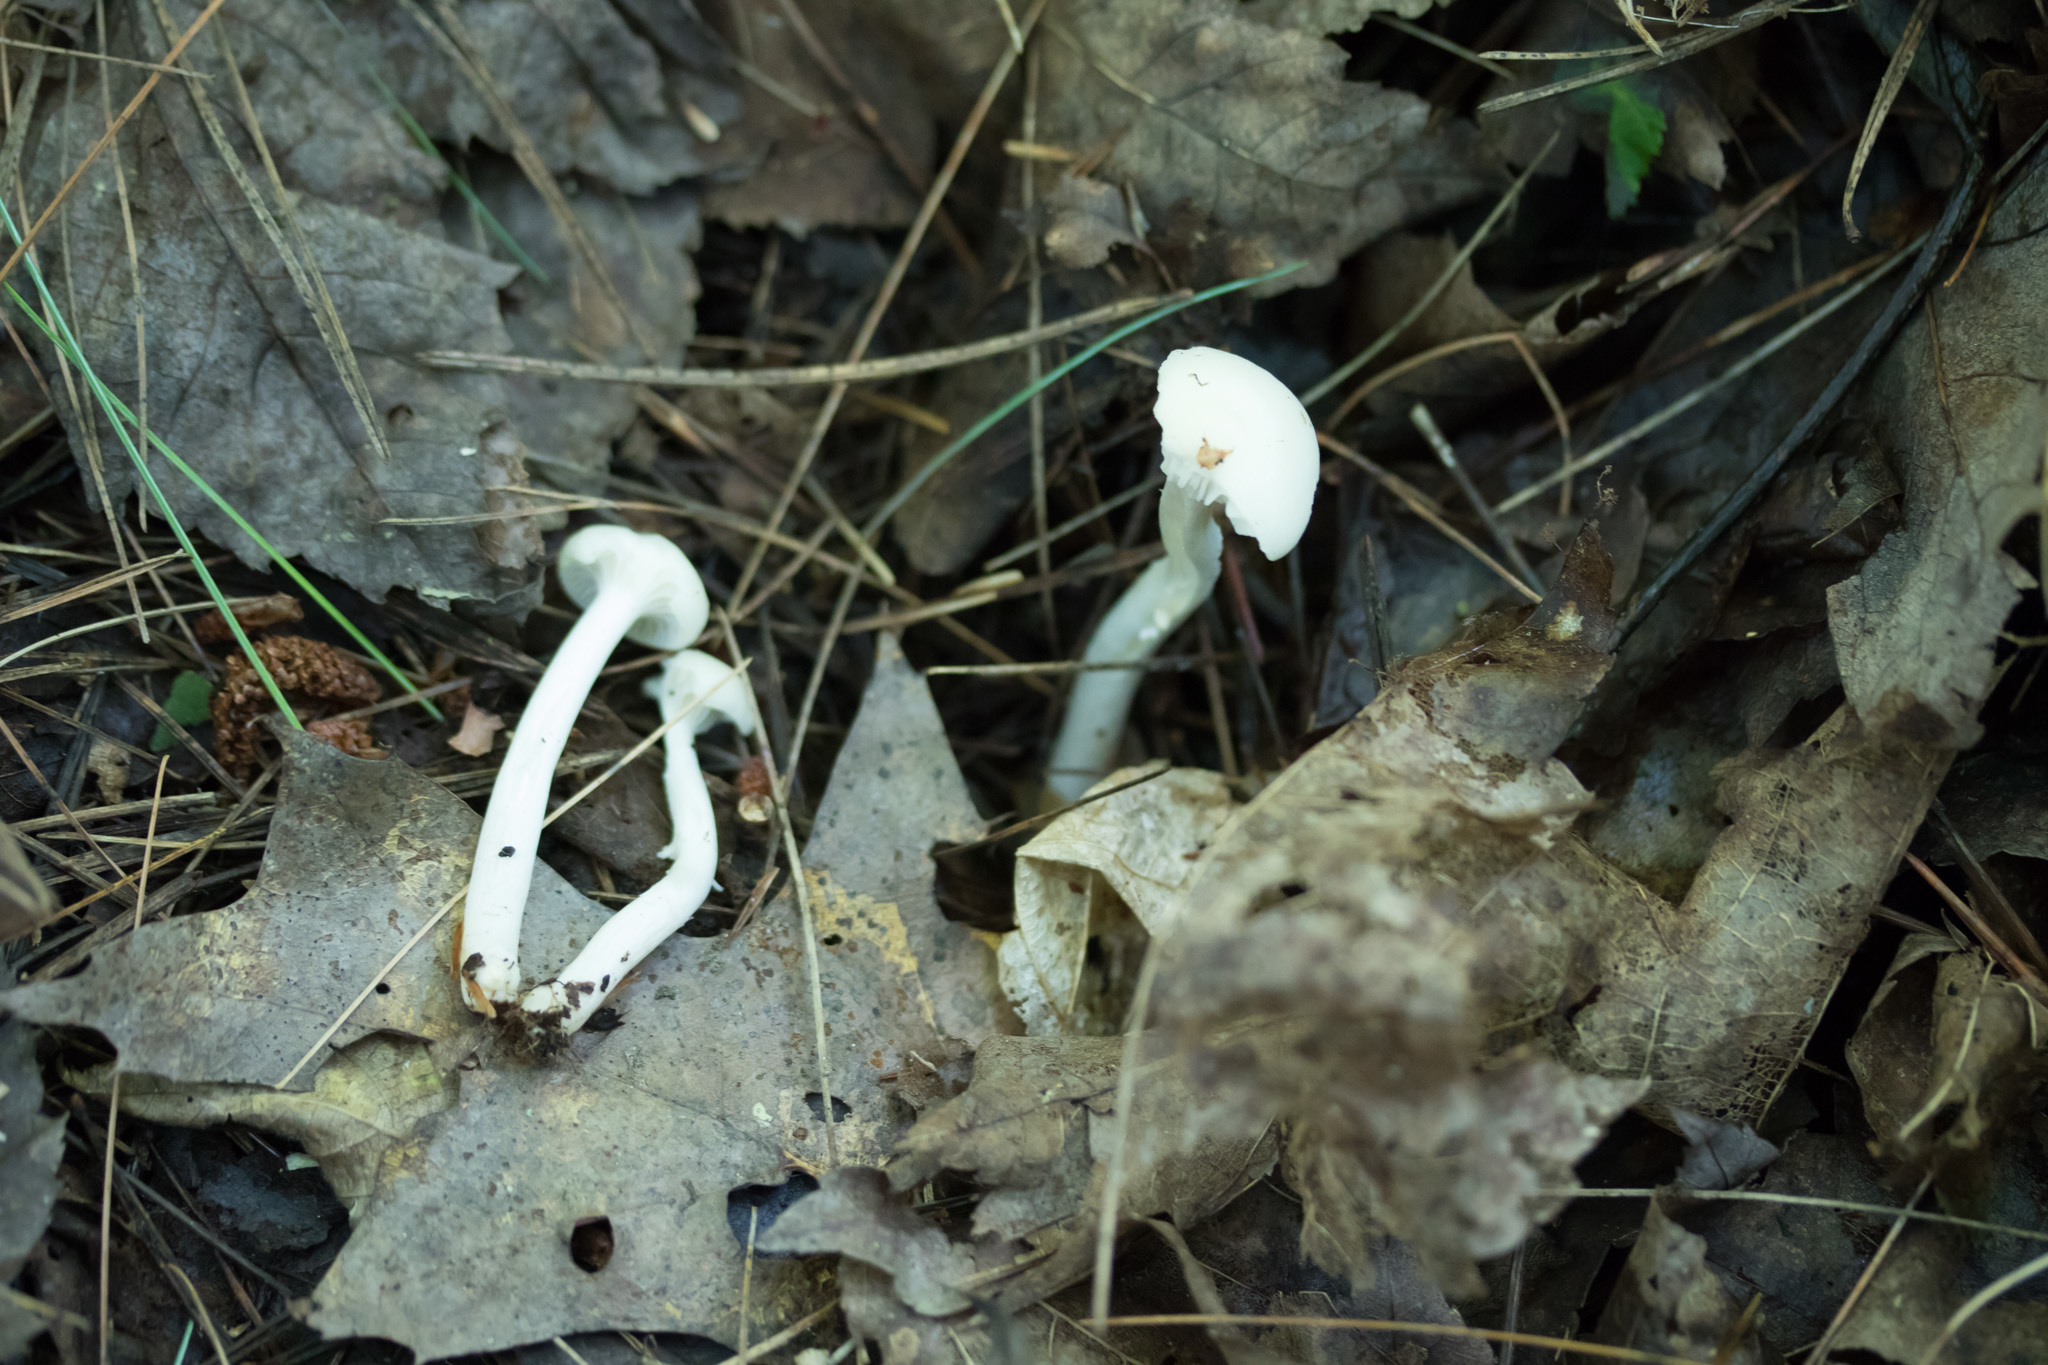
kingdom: Fungi
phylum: Basidiomycota
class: Agaricomycetes
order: Agaricales
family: Hygrophoraceae
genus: Cuphophyllus
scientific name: Cuphophyllus virgineus
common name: Snowy waxcap
